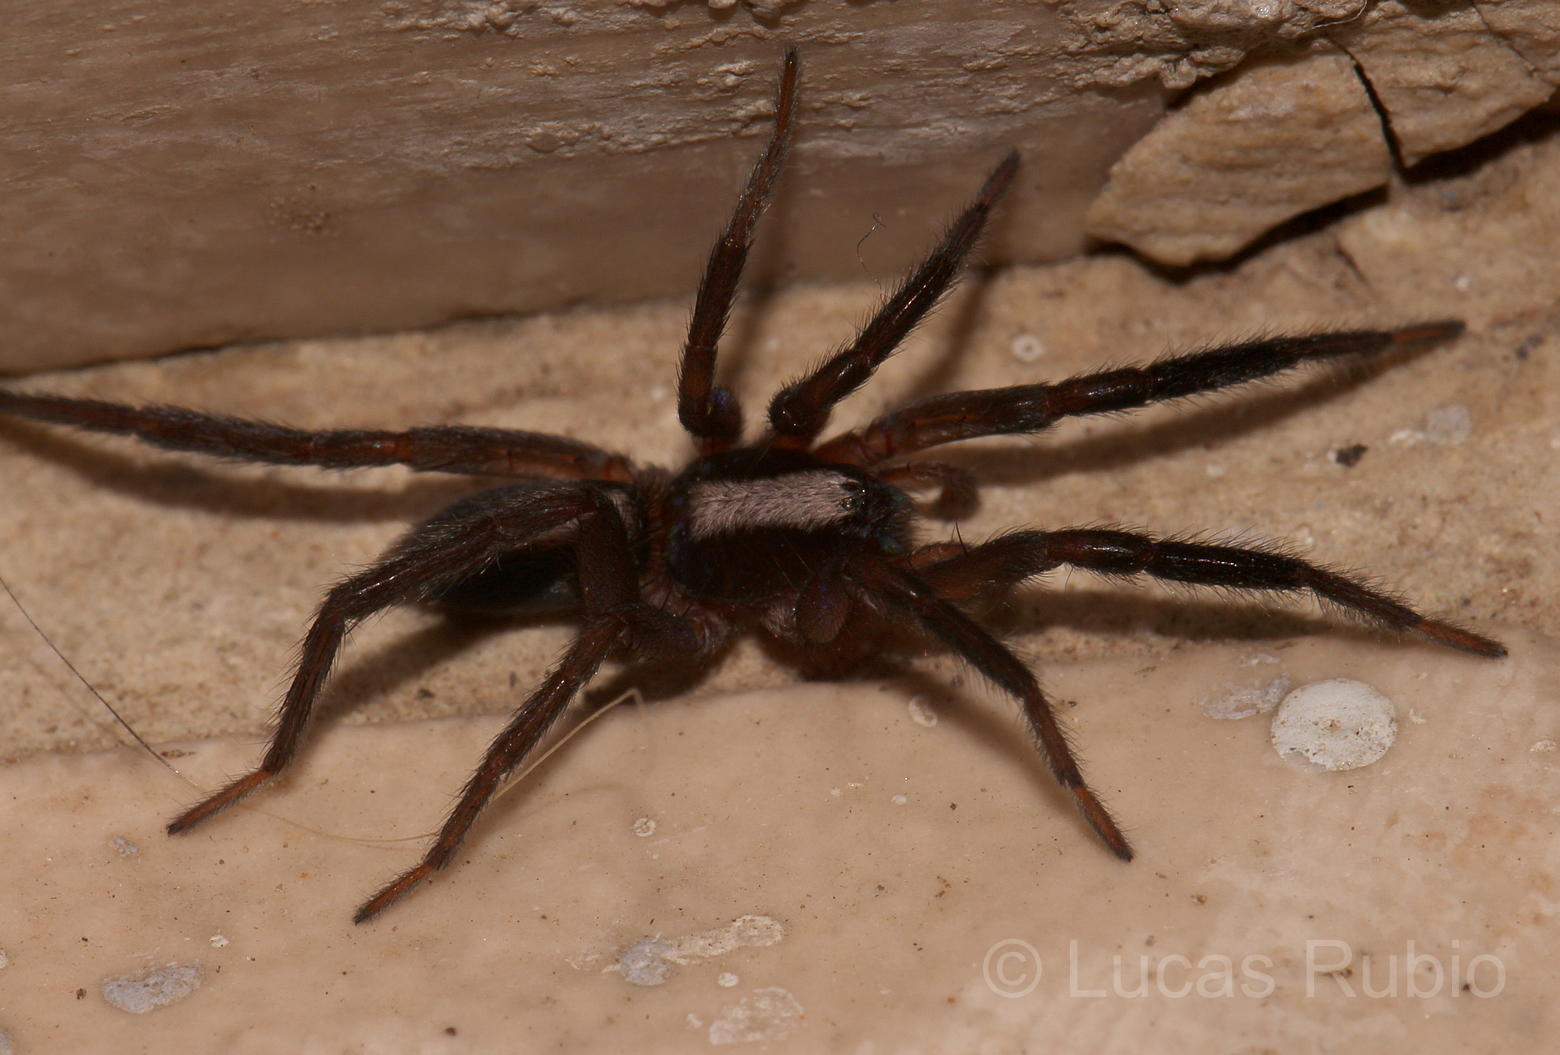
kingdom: Animalia
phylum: Arthropoda
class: Arachnida
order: Araneae
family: Miturgidae
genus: Teminius
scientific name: Teminius insularis
